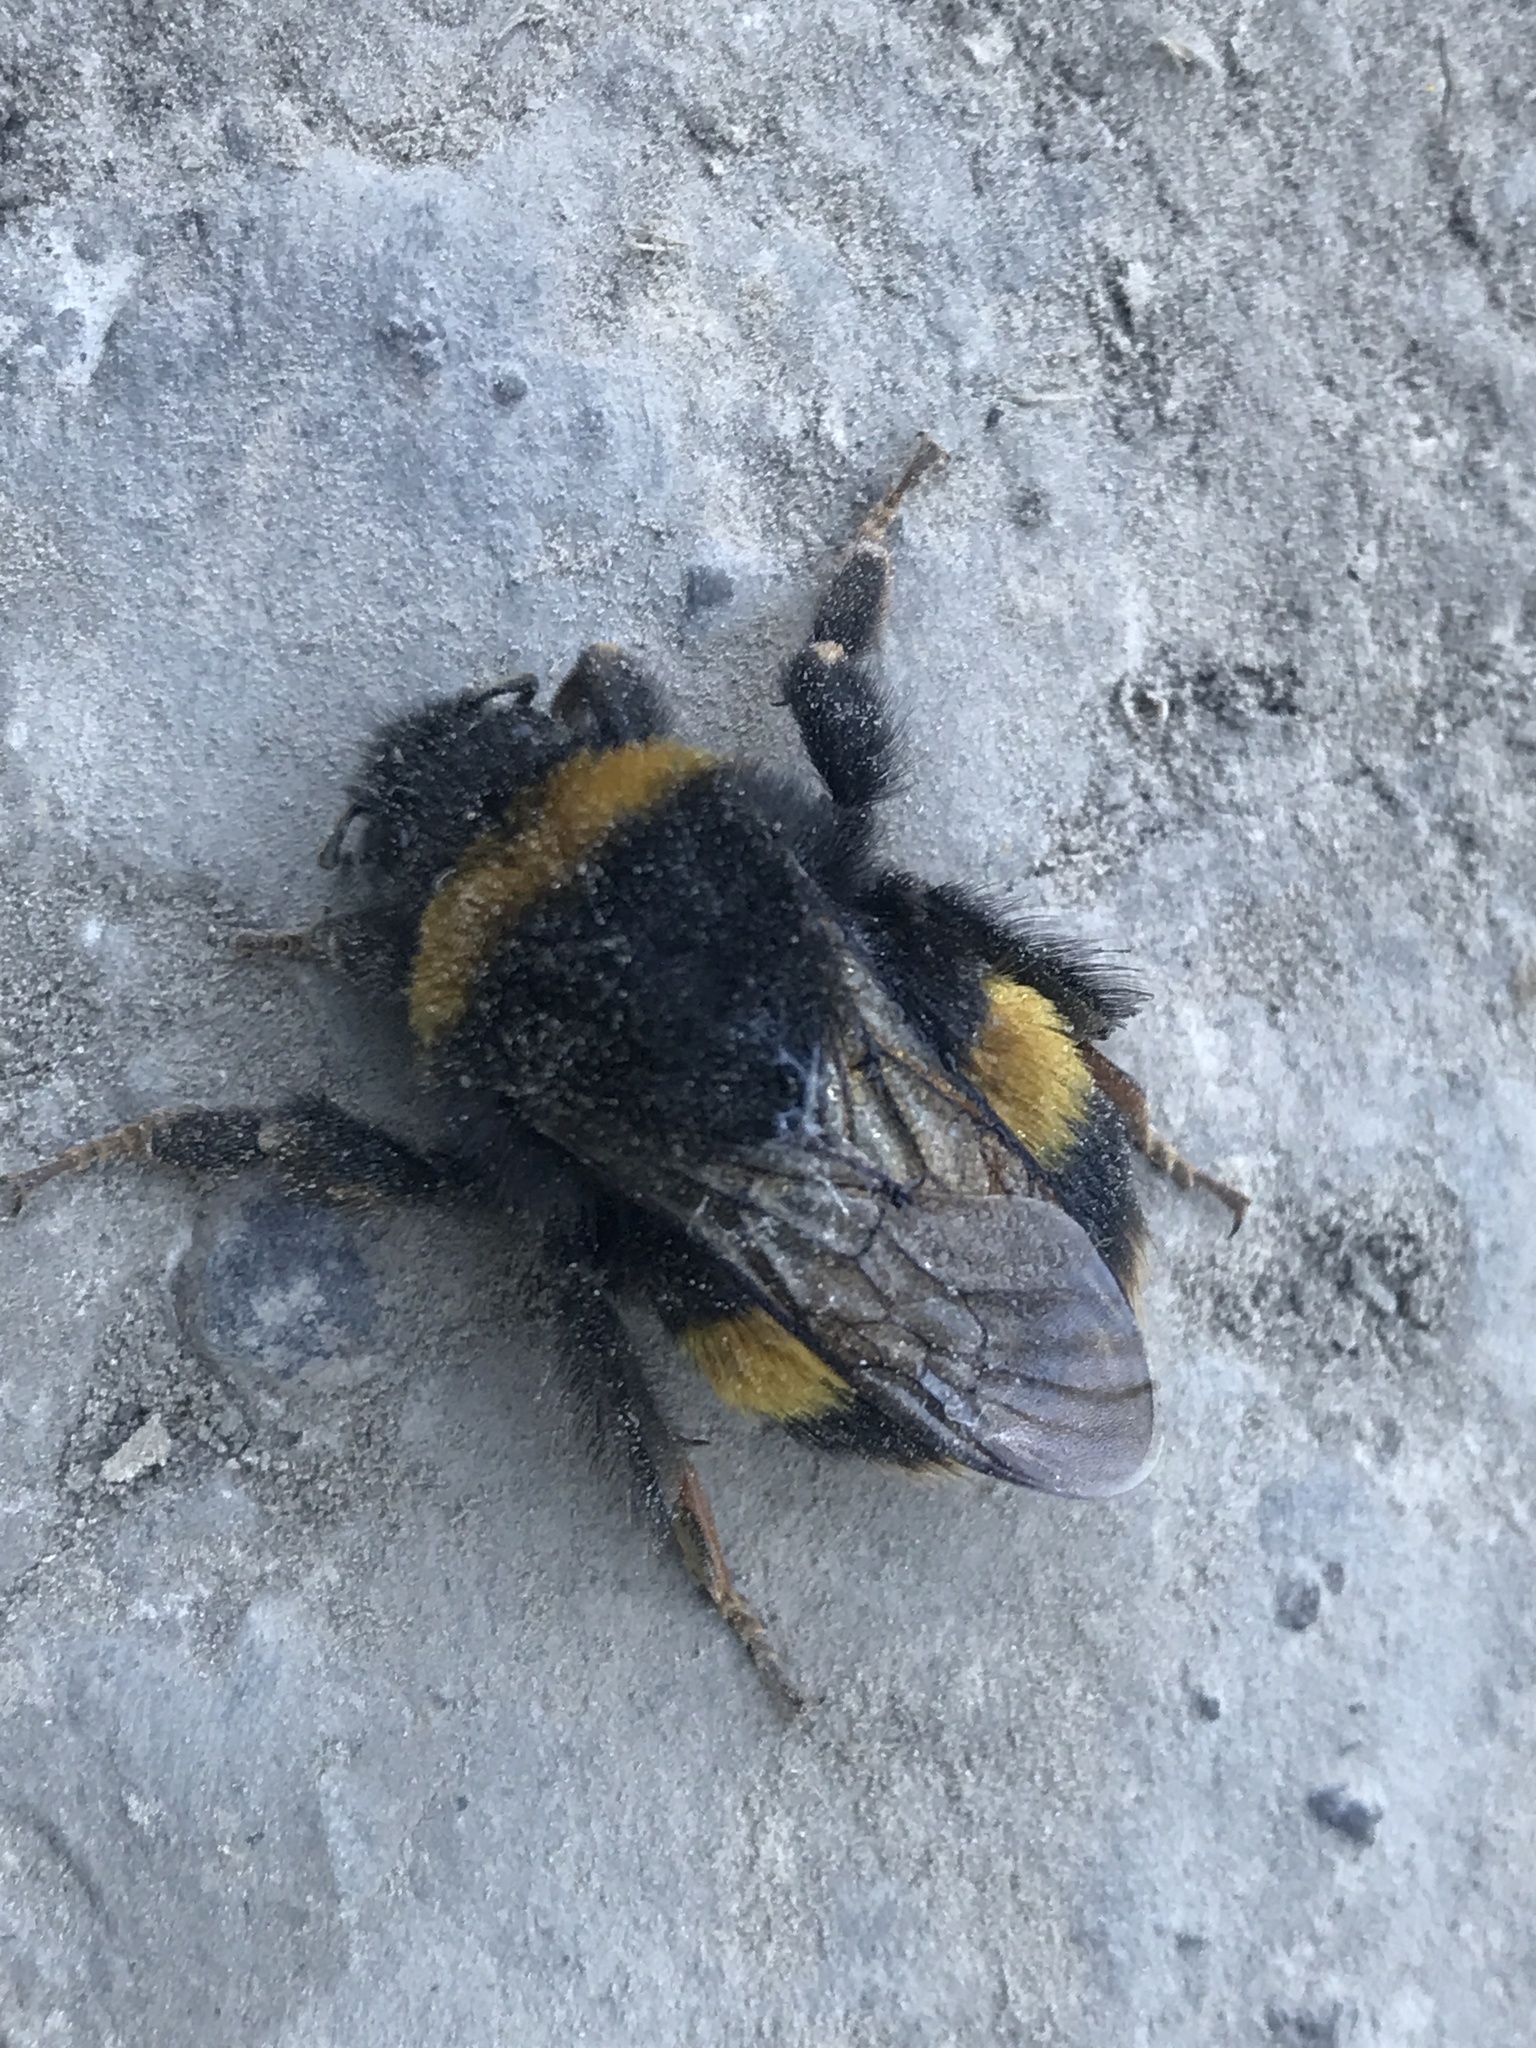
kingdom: Animalia
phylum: Arthropoda
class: Insecta
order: Hymenoptera
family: Apidae
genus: Bombus
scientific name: Bombus terrestris
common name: Buff-tailed bumblebee
